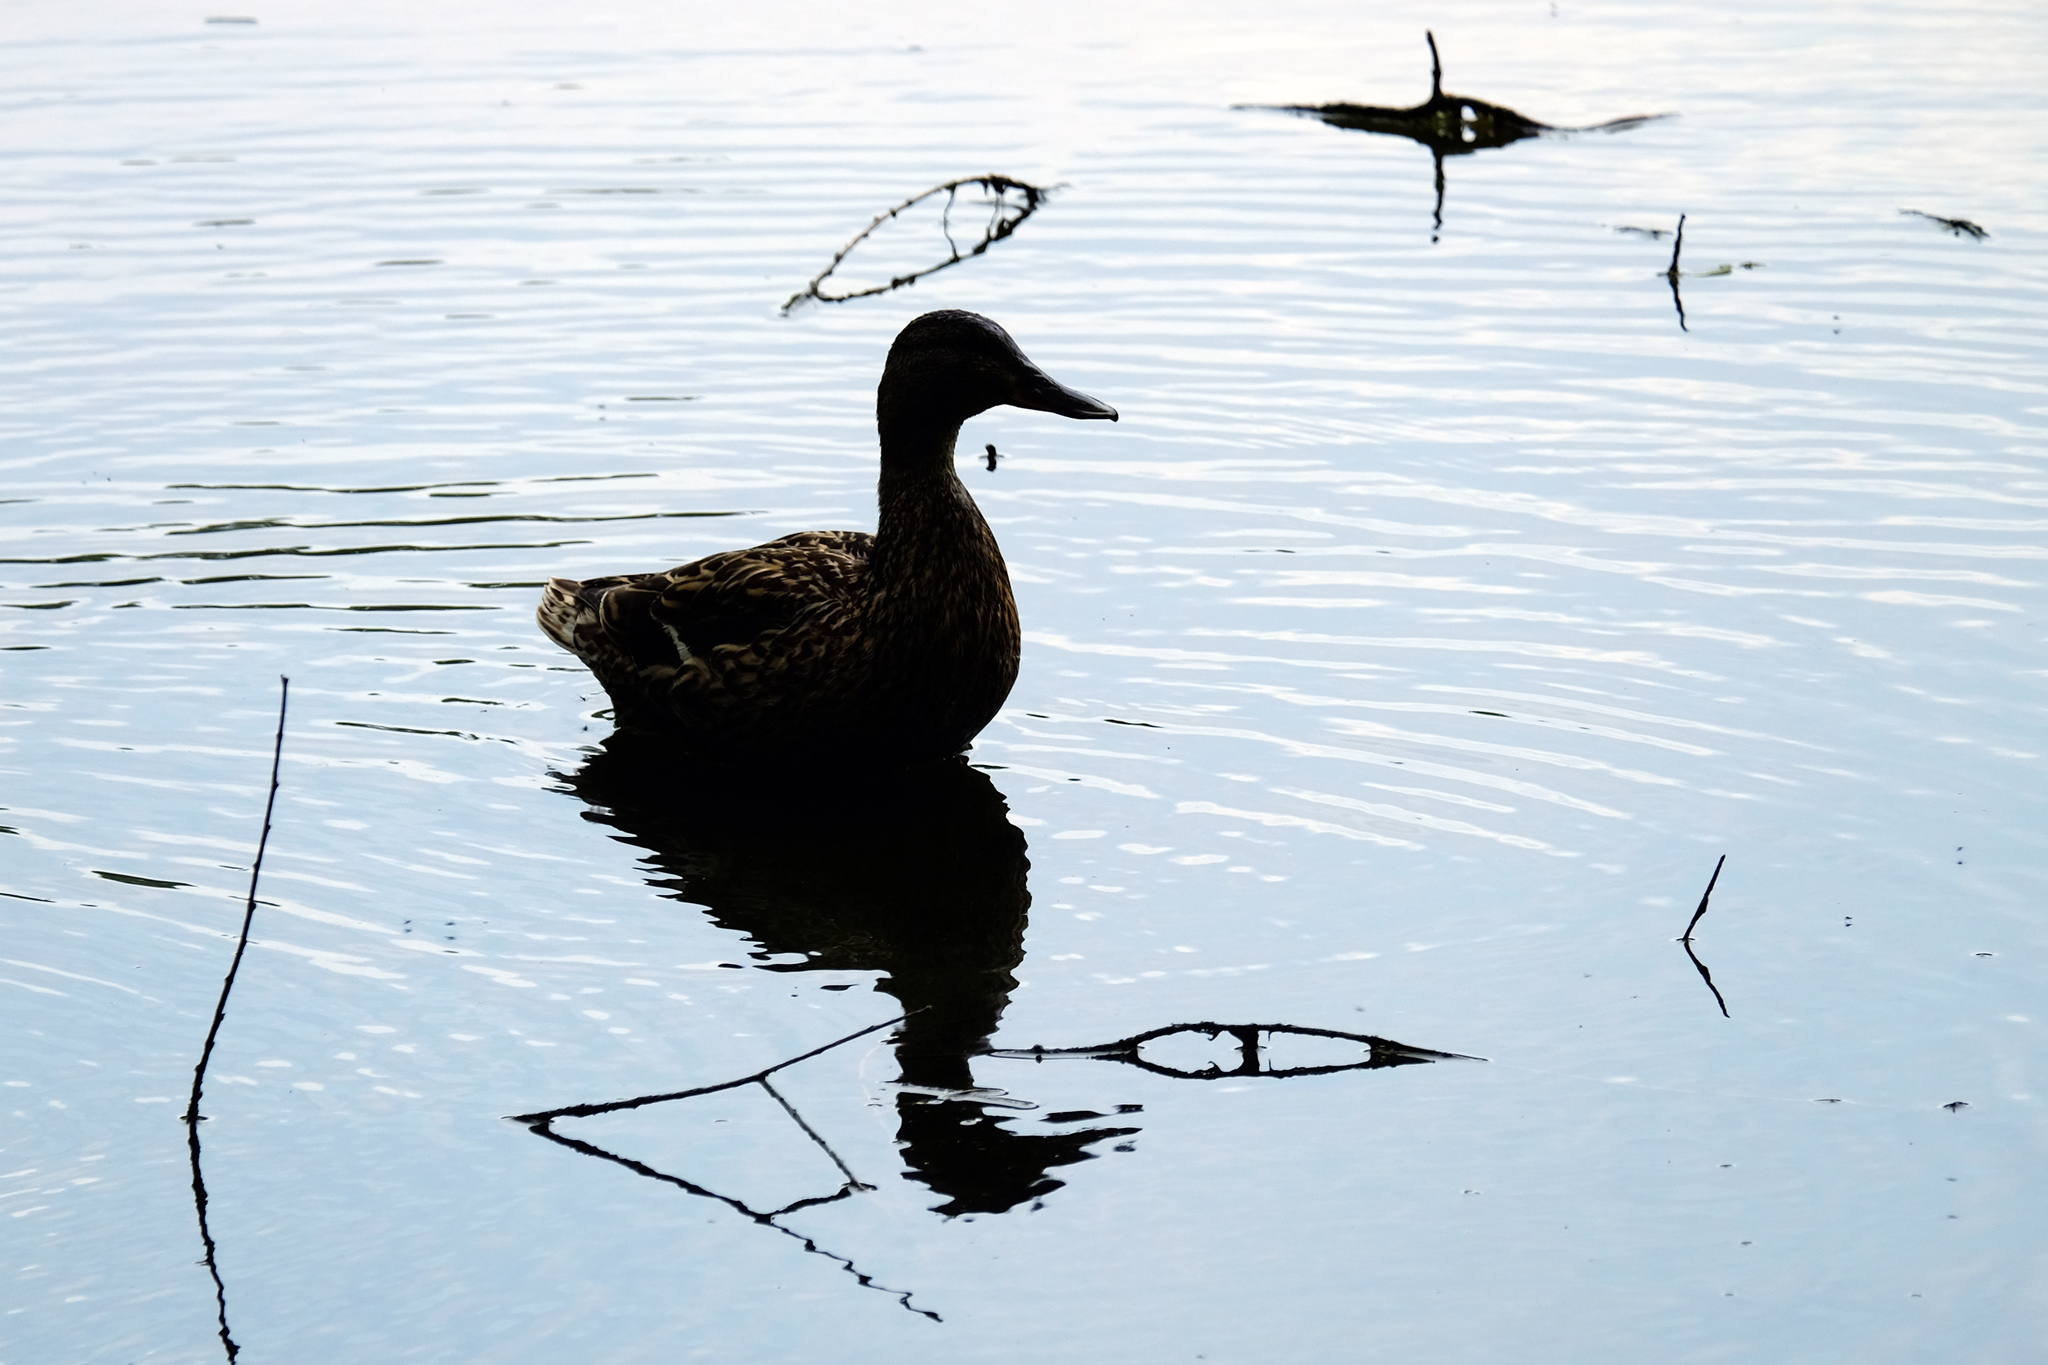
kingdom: Animalia
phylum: Chordata
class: Aves
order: Anseriformes
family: Anatidae
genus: Anas
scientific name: Anas platyrhynchos
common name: Mallard
